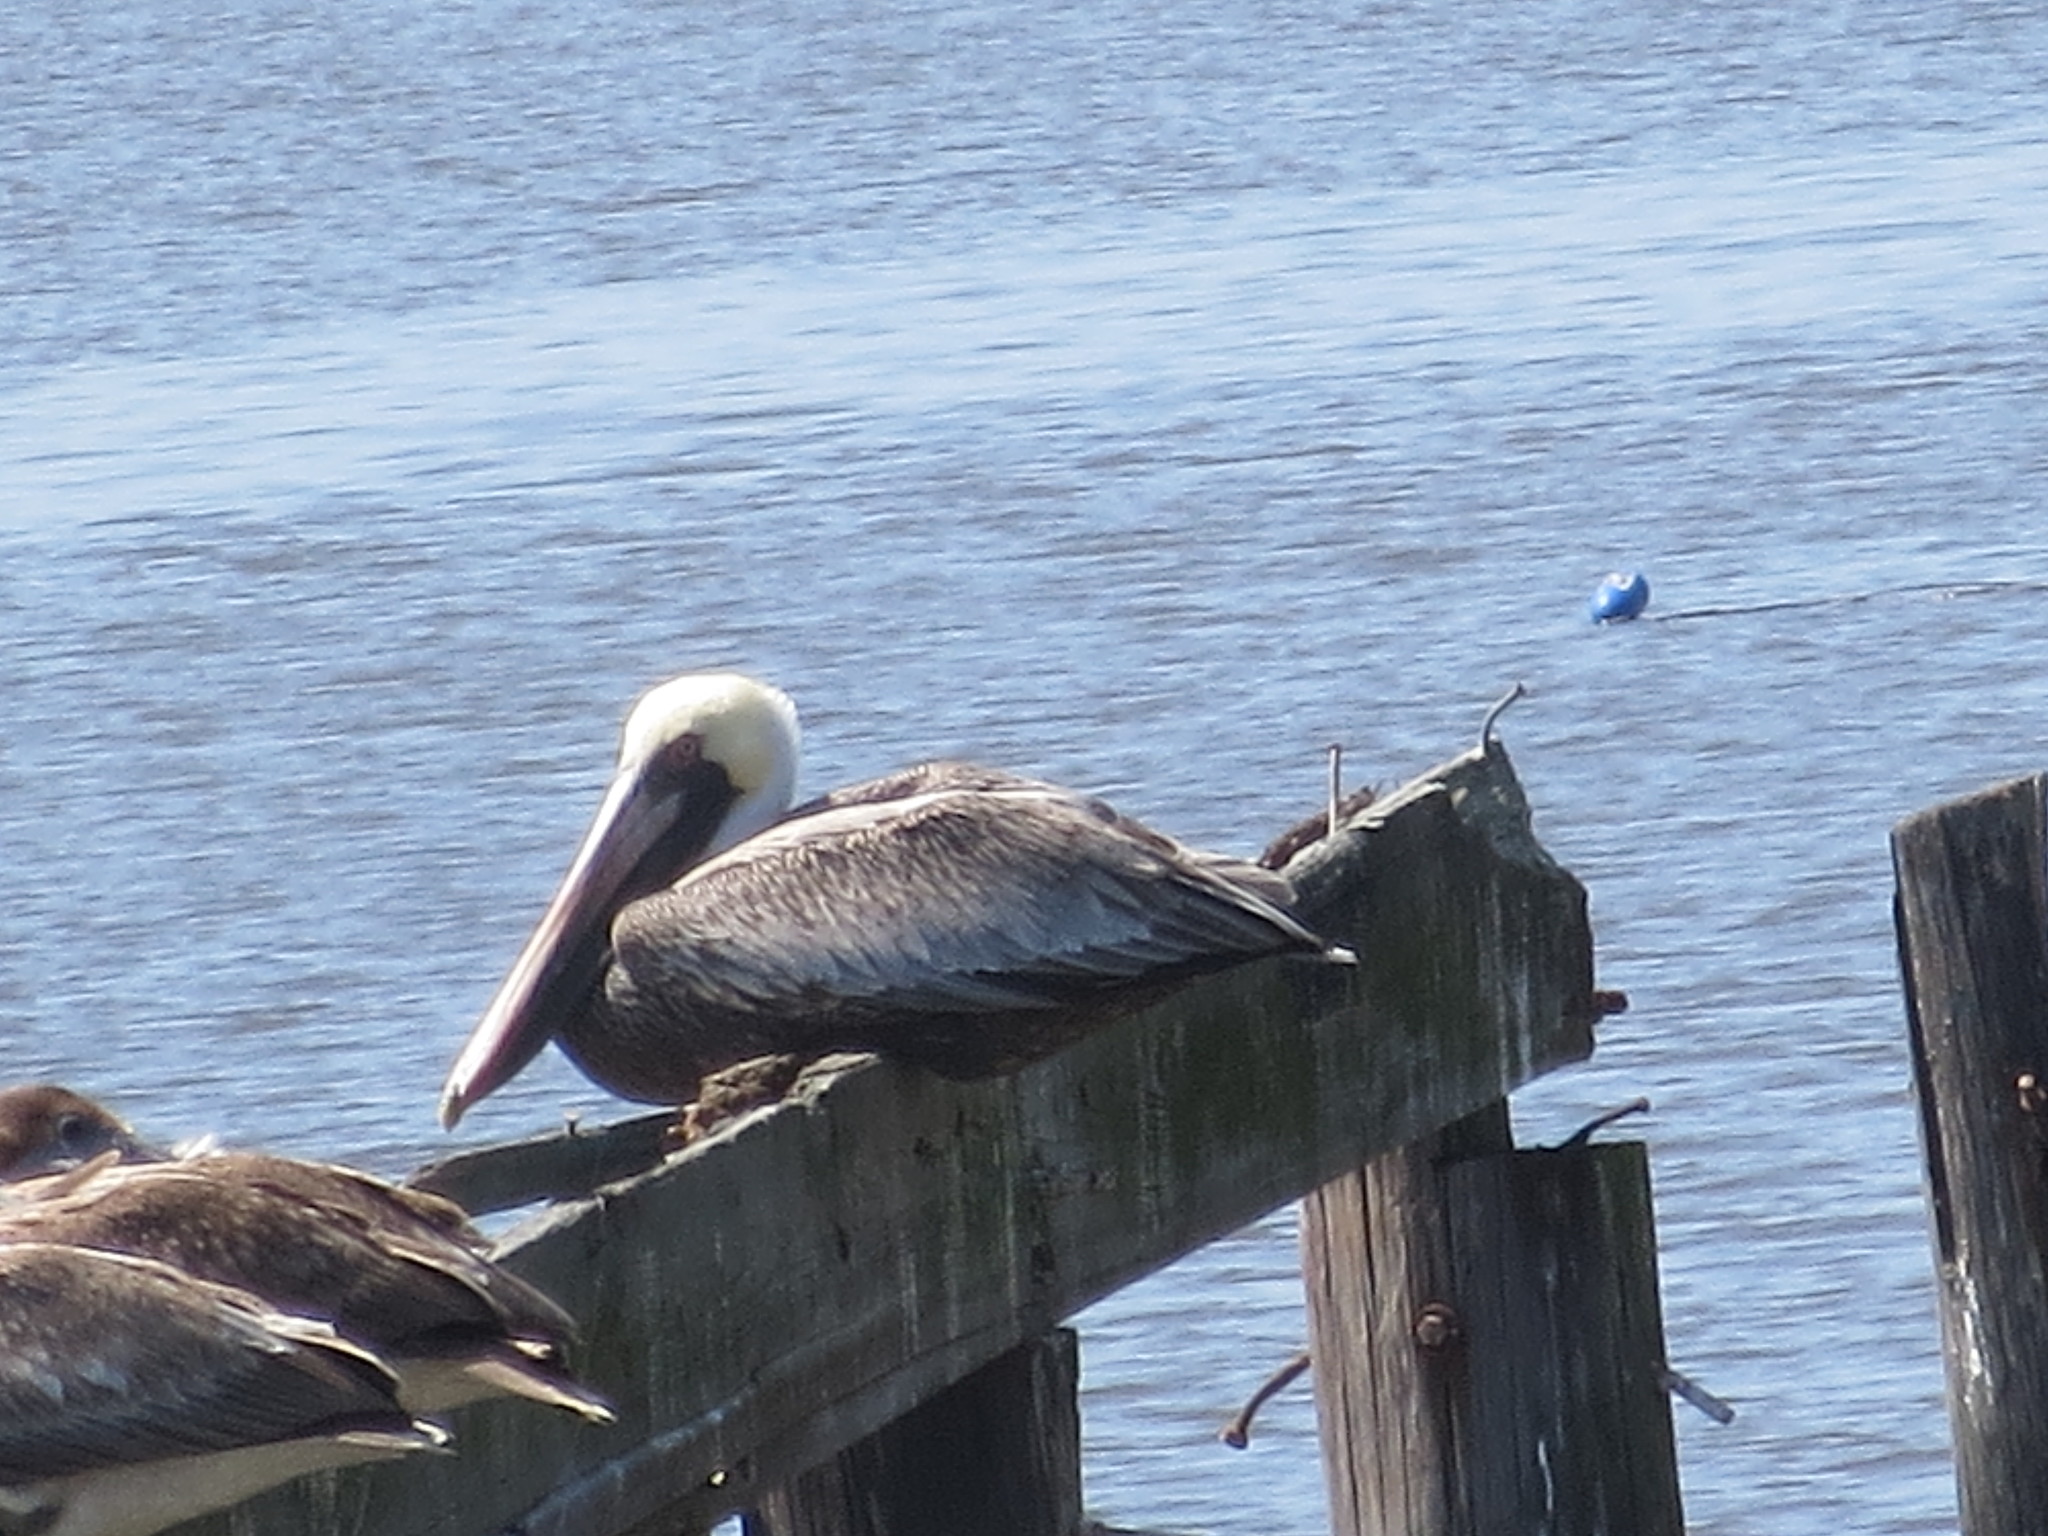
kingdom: Animalia
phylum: Chordata
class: Aves
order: Pelecaniformes
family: Pelecanidae
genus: Pelecanus
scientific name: Pelecanus occidentalis
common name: Brown pelican
